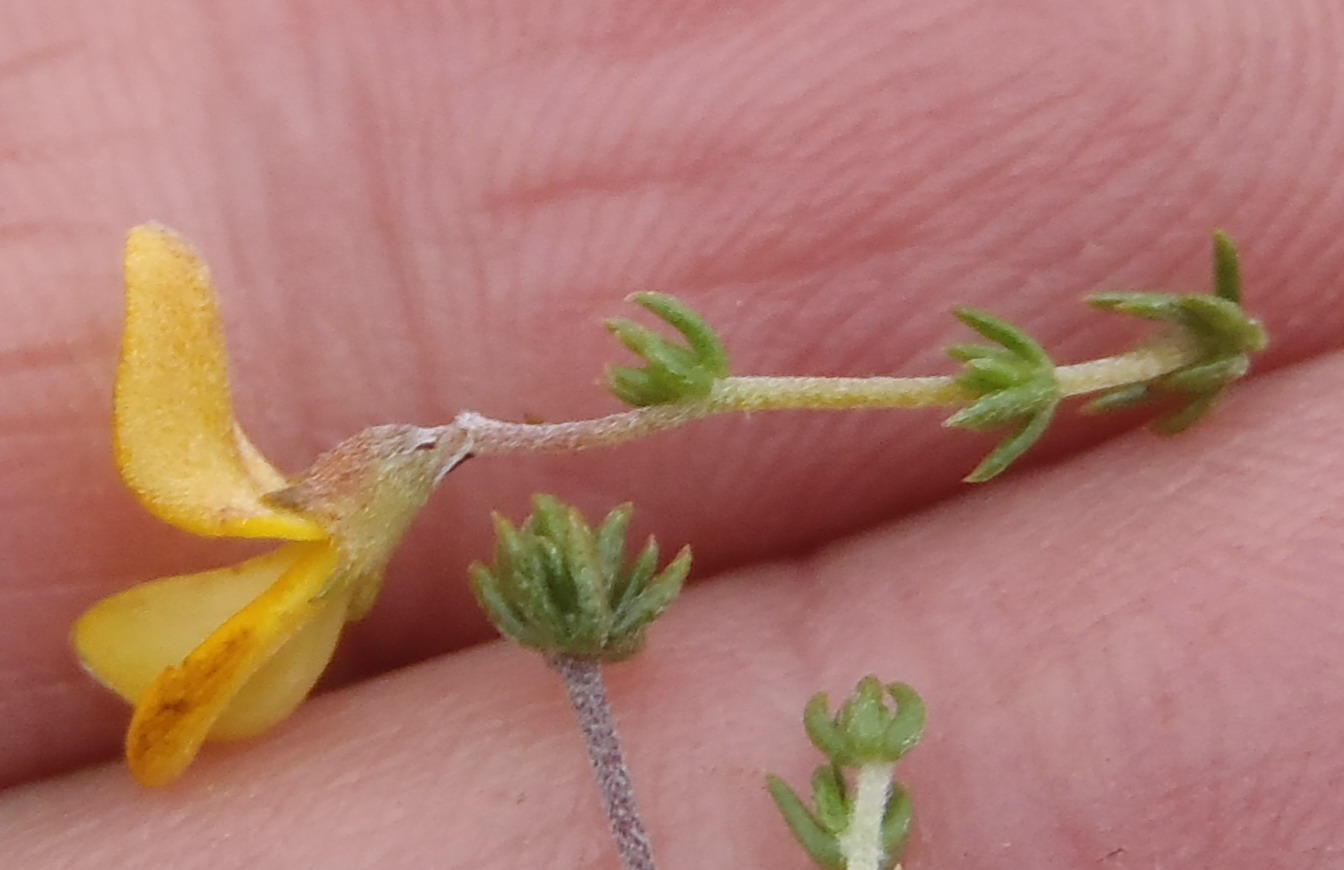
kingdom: Plantae
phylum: Tracheophyta
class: Magnoliopsida
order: Fabales
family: Fabaceae
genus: Aspalathus
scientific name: Aspalathus rubens
